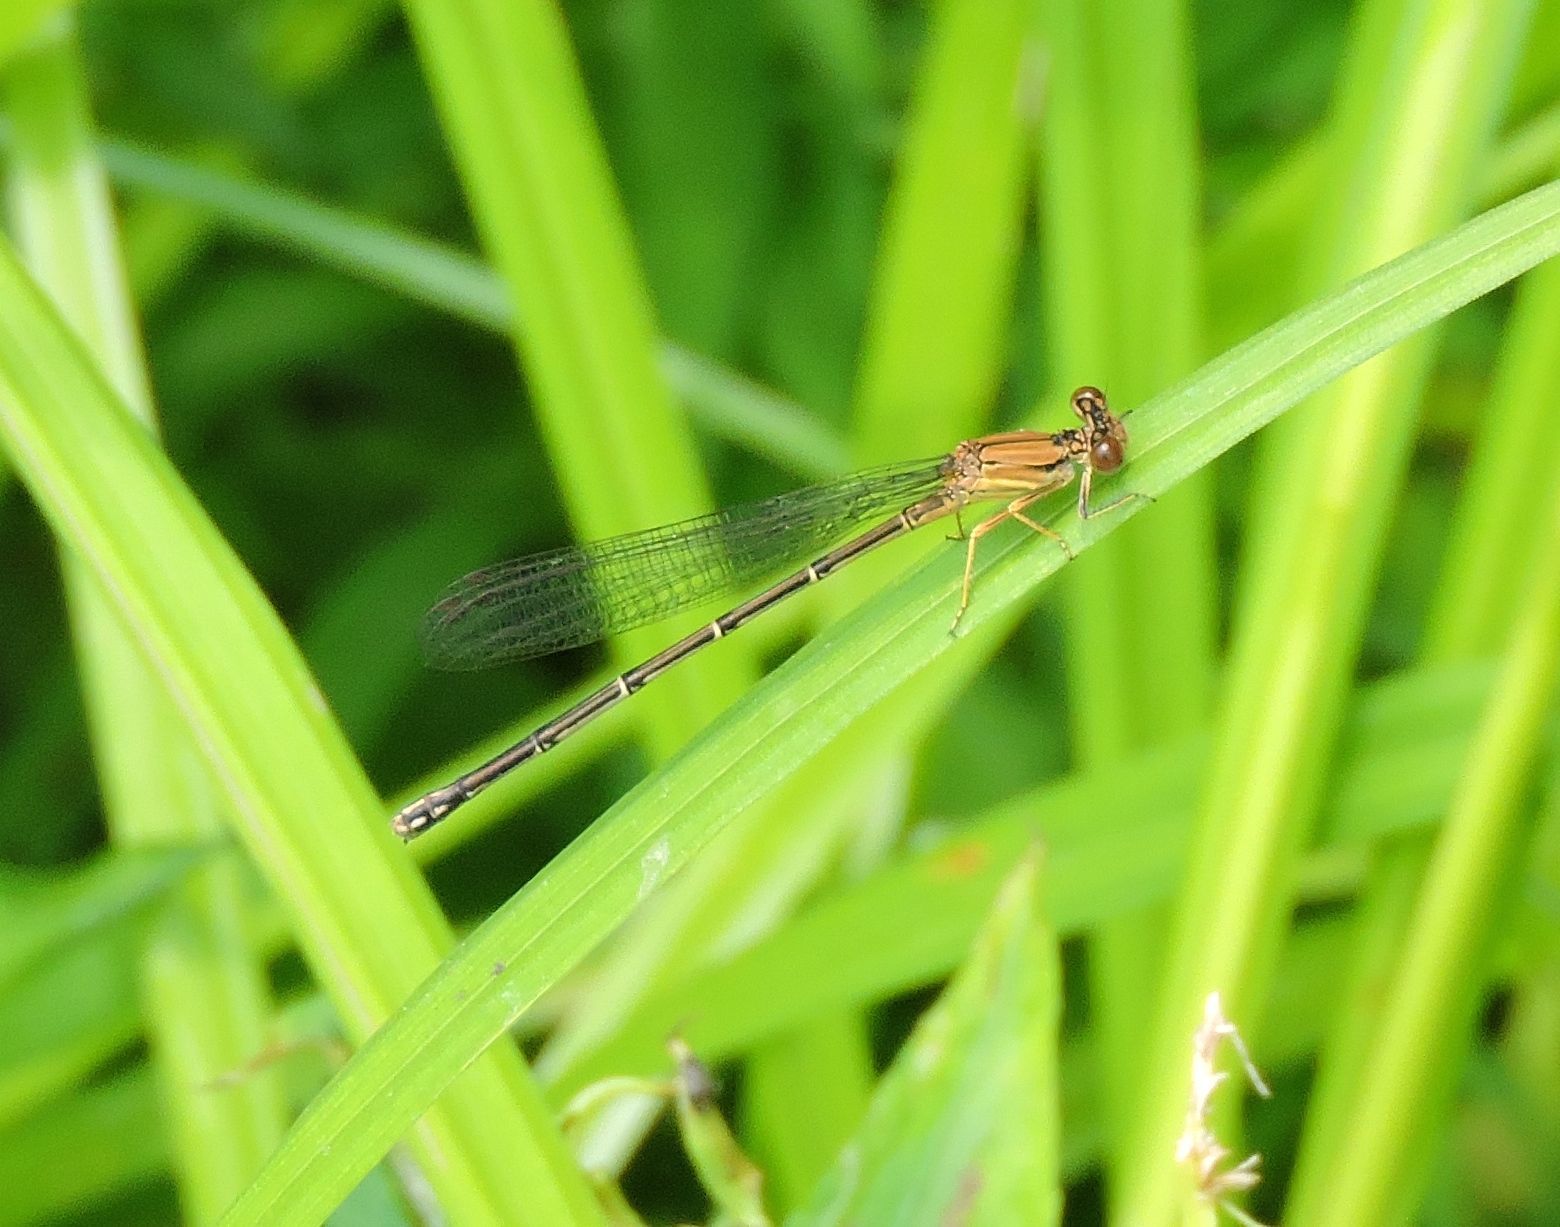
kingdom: Animalia
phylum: Arthropoda
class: Insecta
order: Odonata
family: Coenagrionidae
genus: Argia
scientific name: Argia apicalis
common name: Blue-fronted dancer
